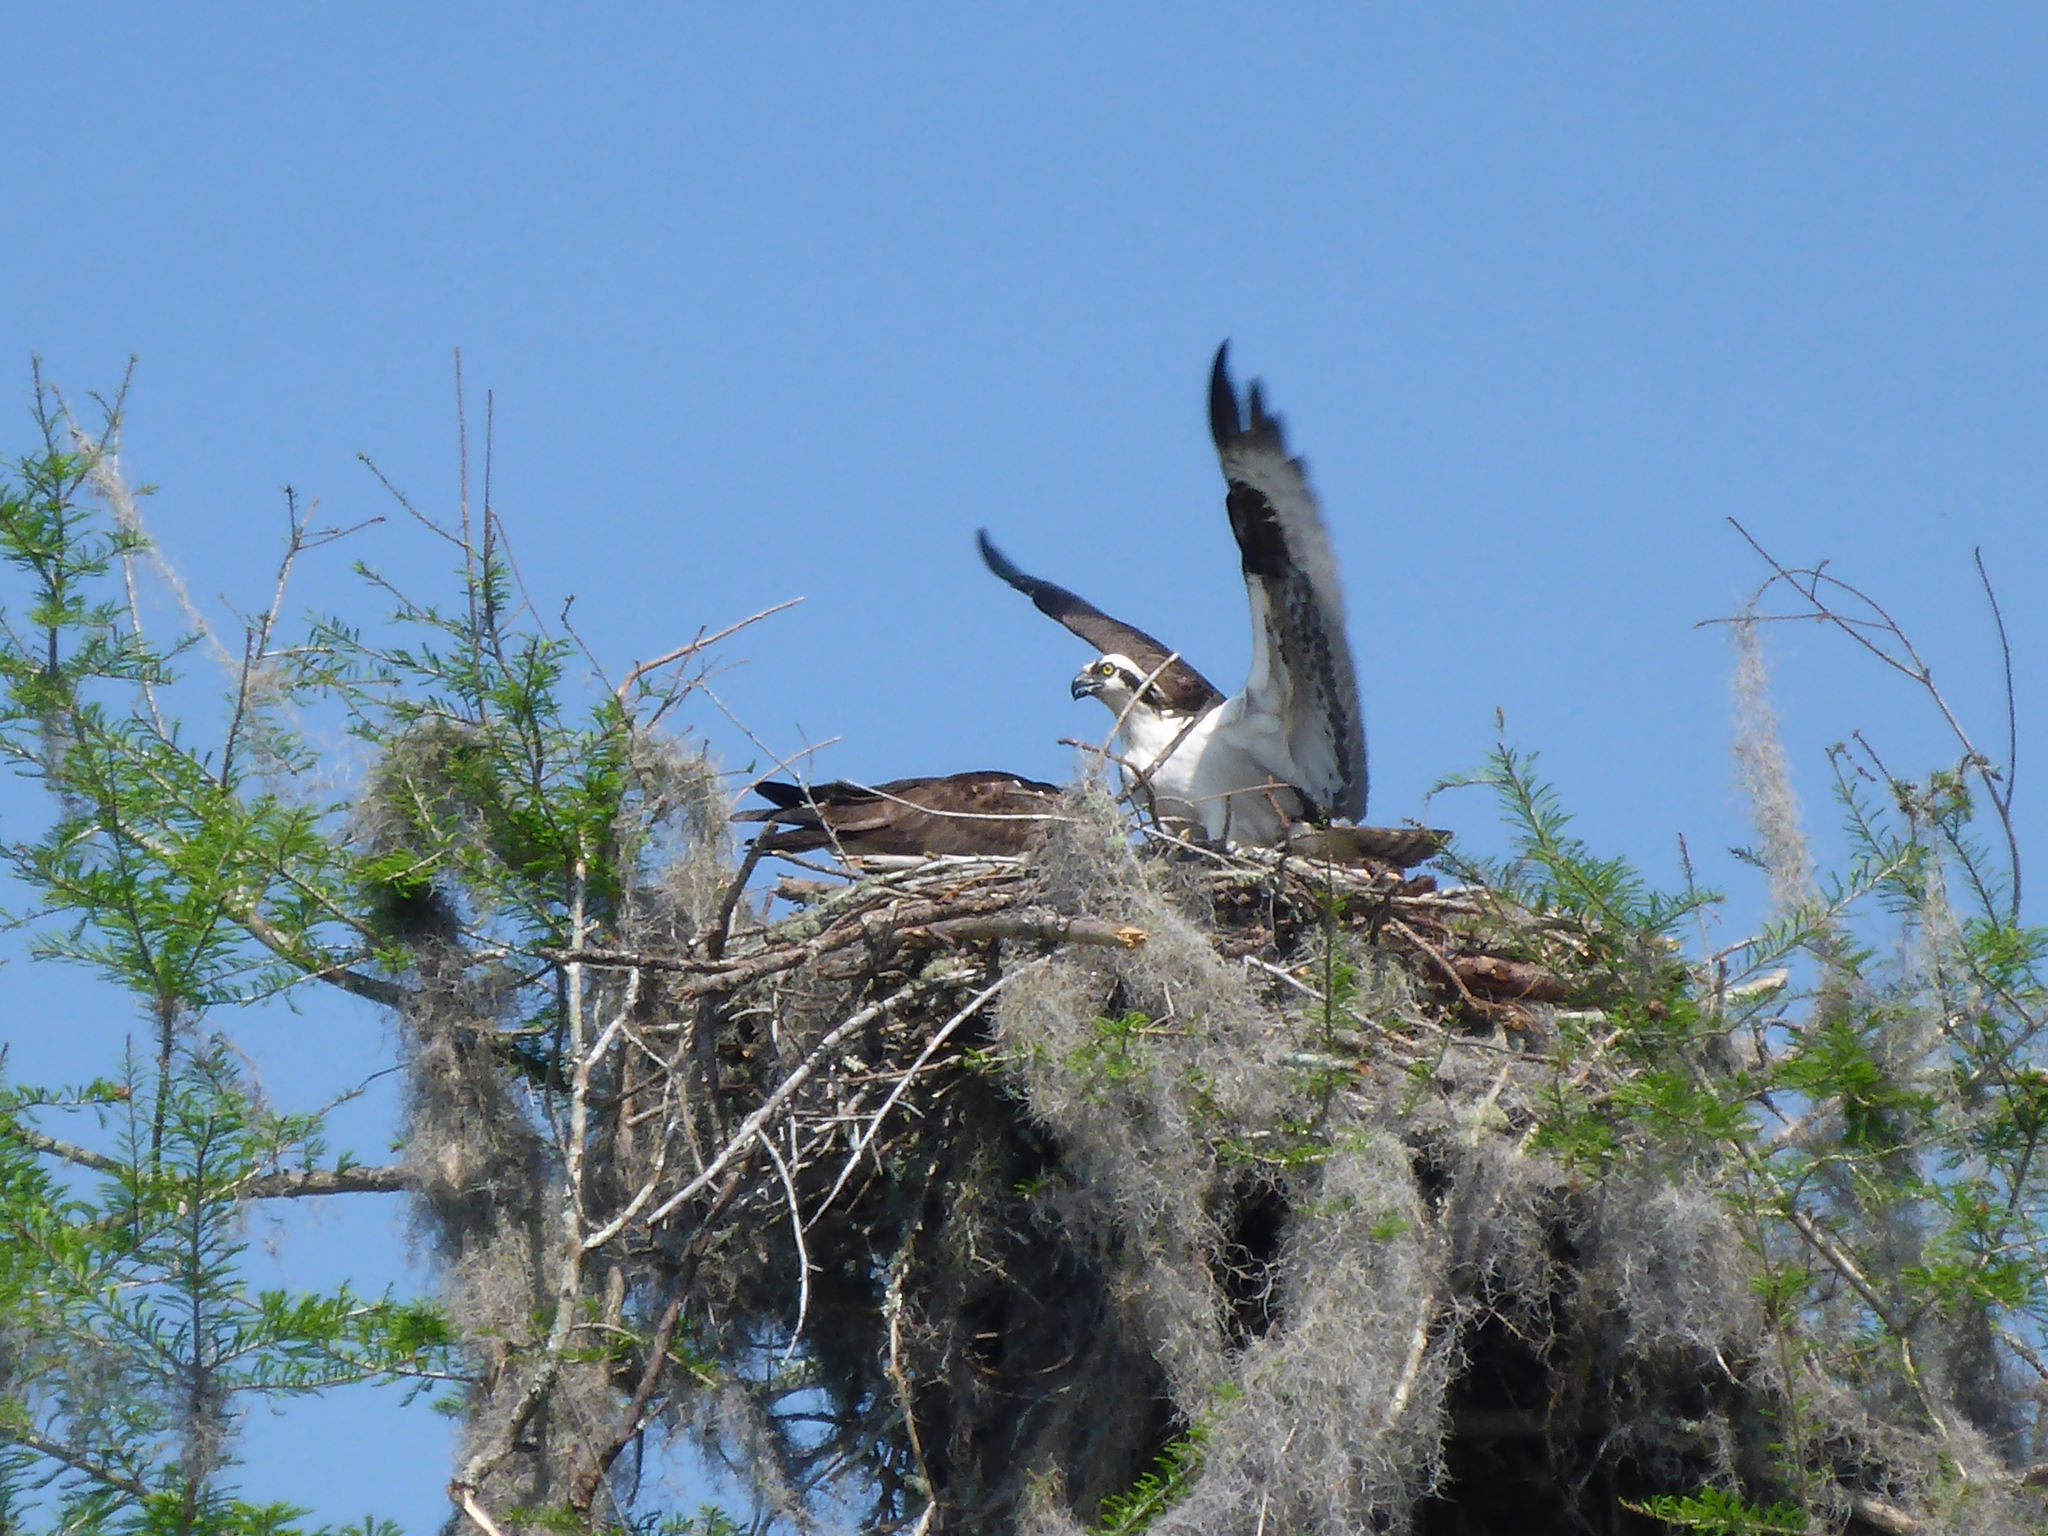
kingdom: Animalia
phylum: Chordata
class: Aves
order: Accipitriformes
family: Pandionidae
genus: Pandion
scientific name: Pandion haliaetus
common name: Osprey
